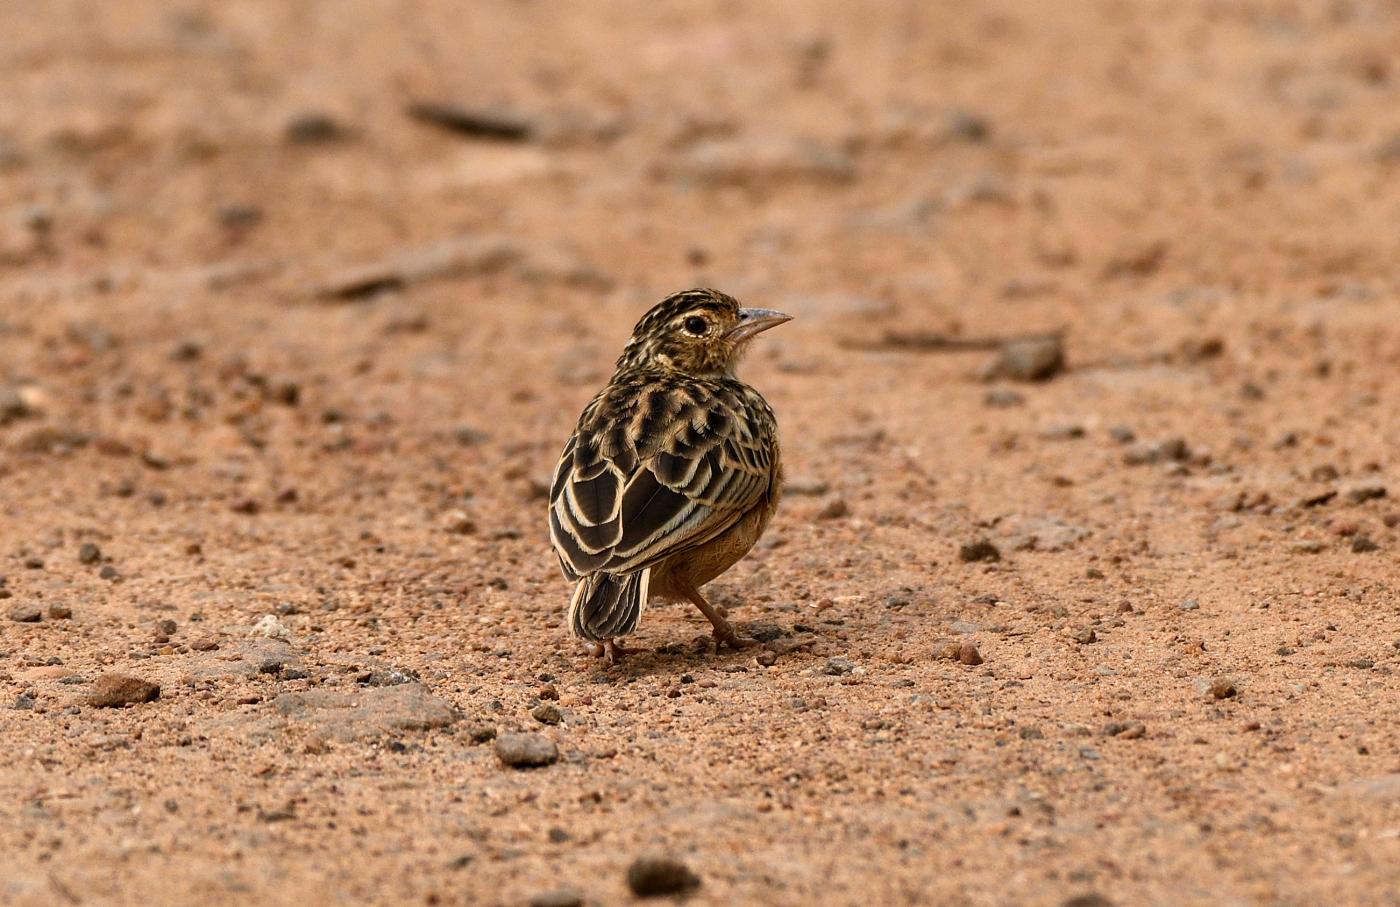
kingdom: Animalia
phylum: Chordata
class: Aves
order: Passeriformes
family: Alaudidae
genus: Mirafra
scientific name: Mirafra affinis
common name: Jerdon's bushlark
